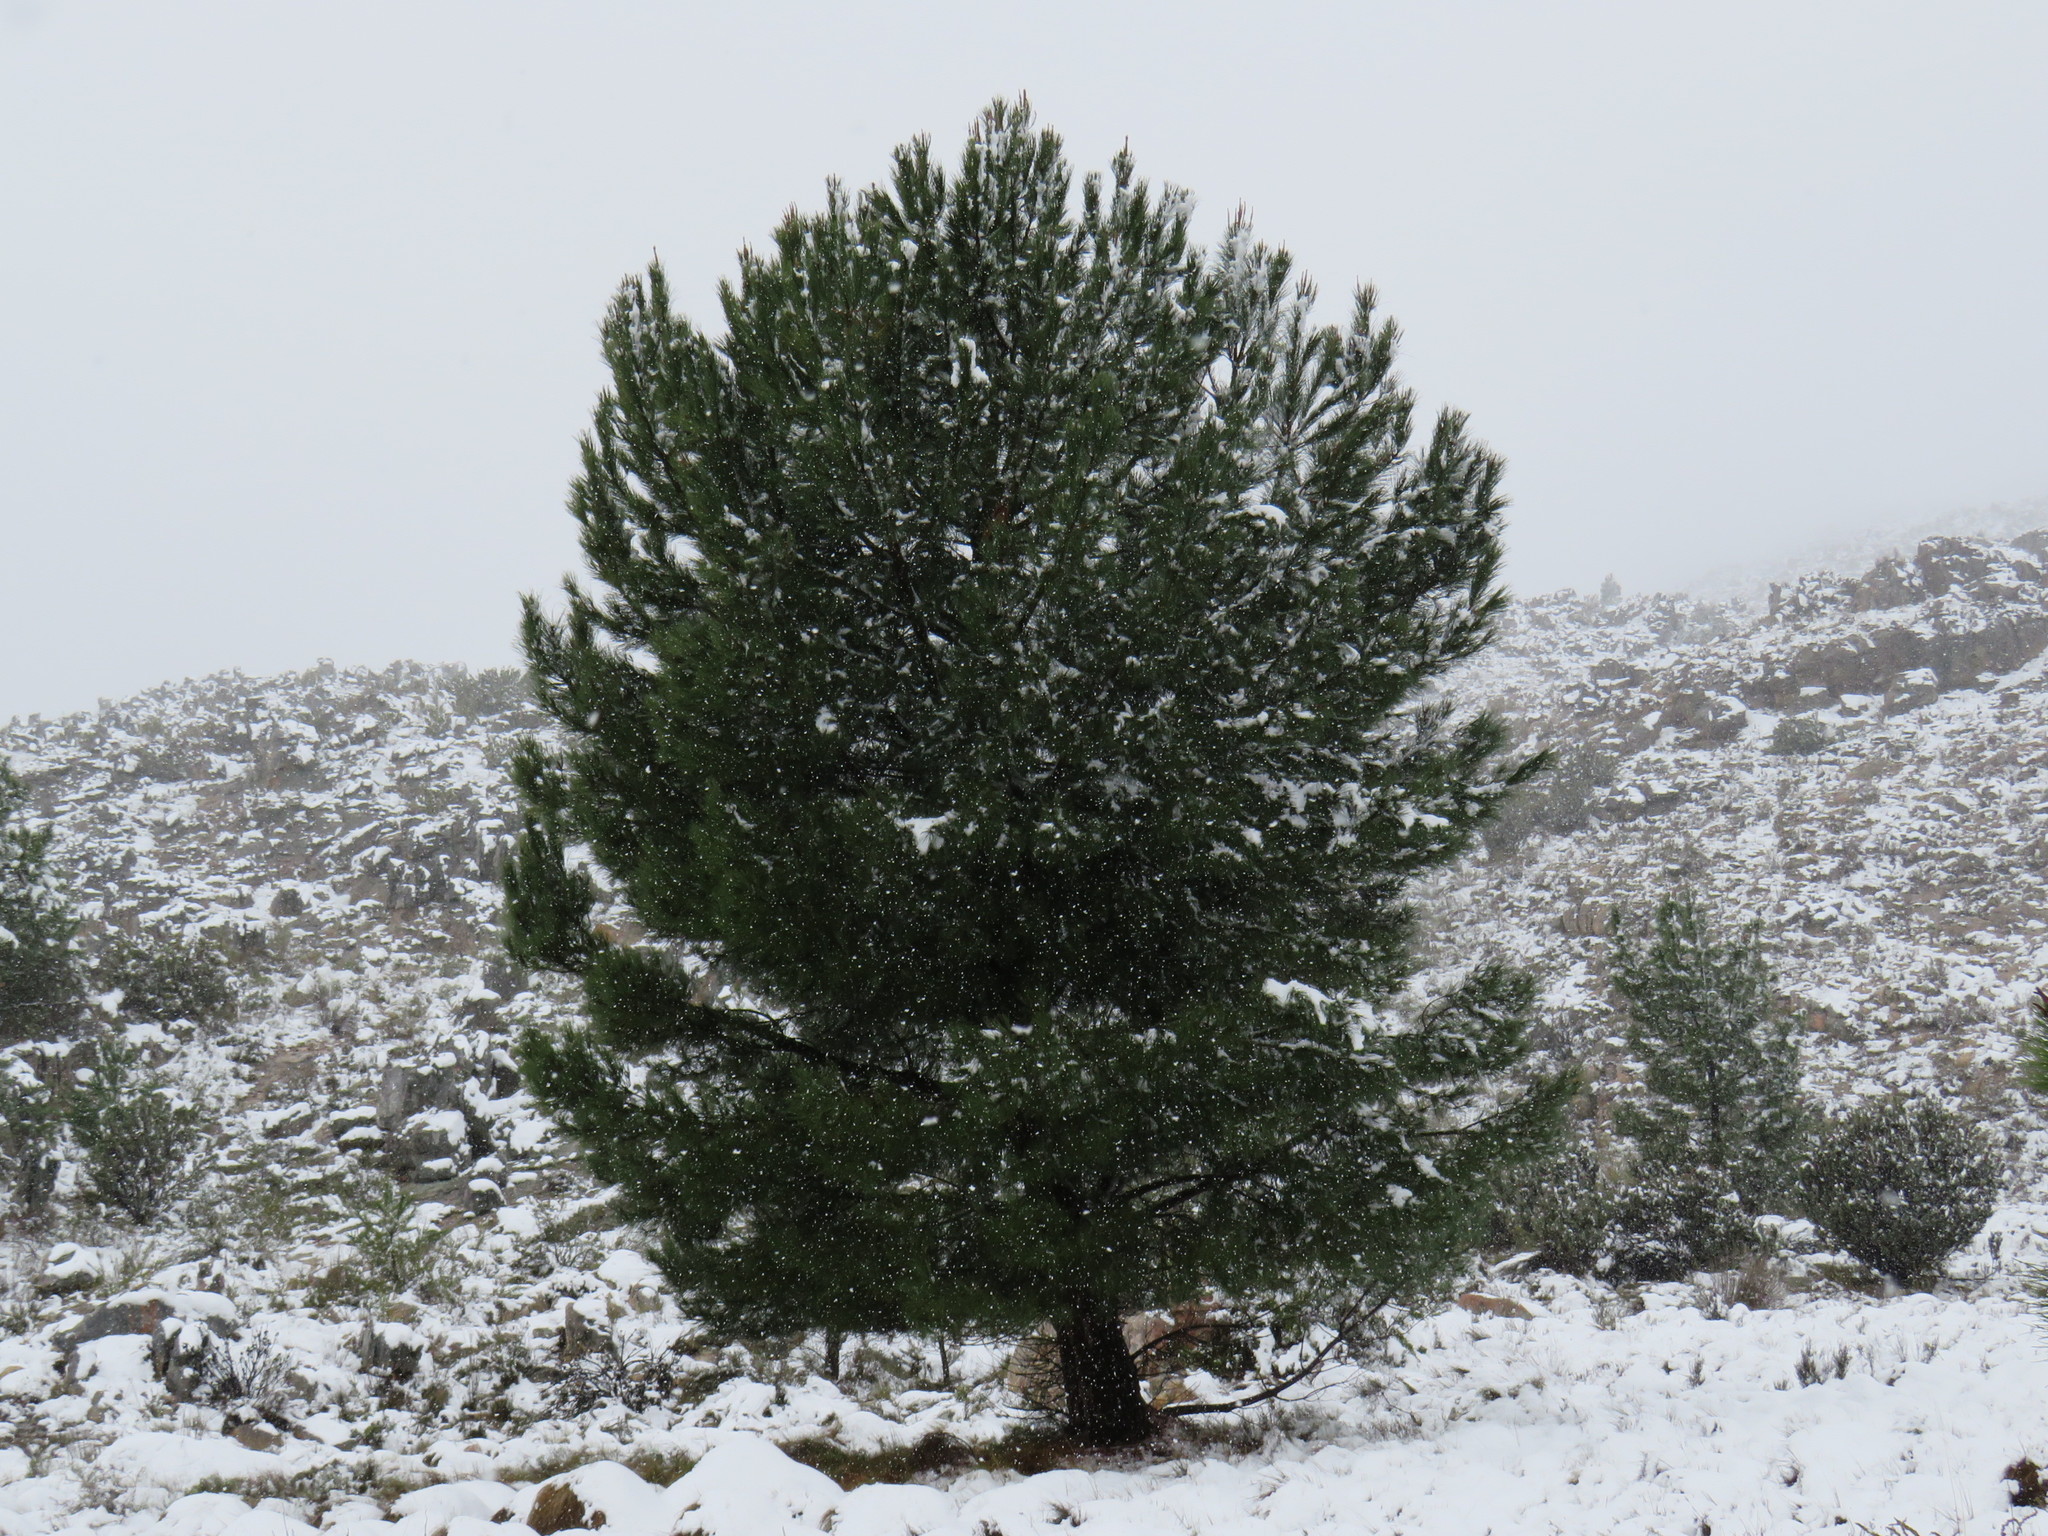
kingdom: Plantae
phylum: Tracheophyta
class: Pinopsida
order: Pinales
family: Pinaceae
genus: Pinus
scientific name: Pinus pinaster
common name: Maritime pine
